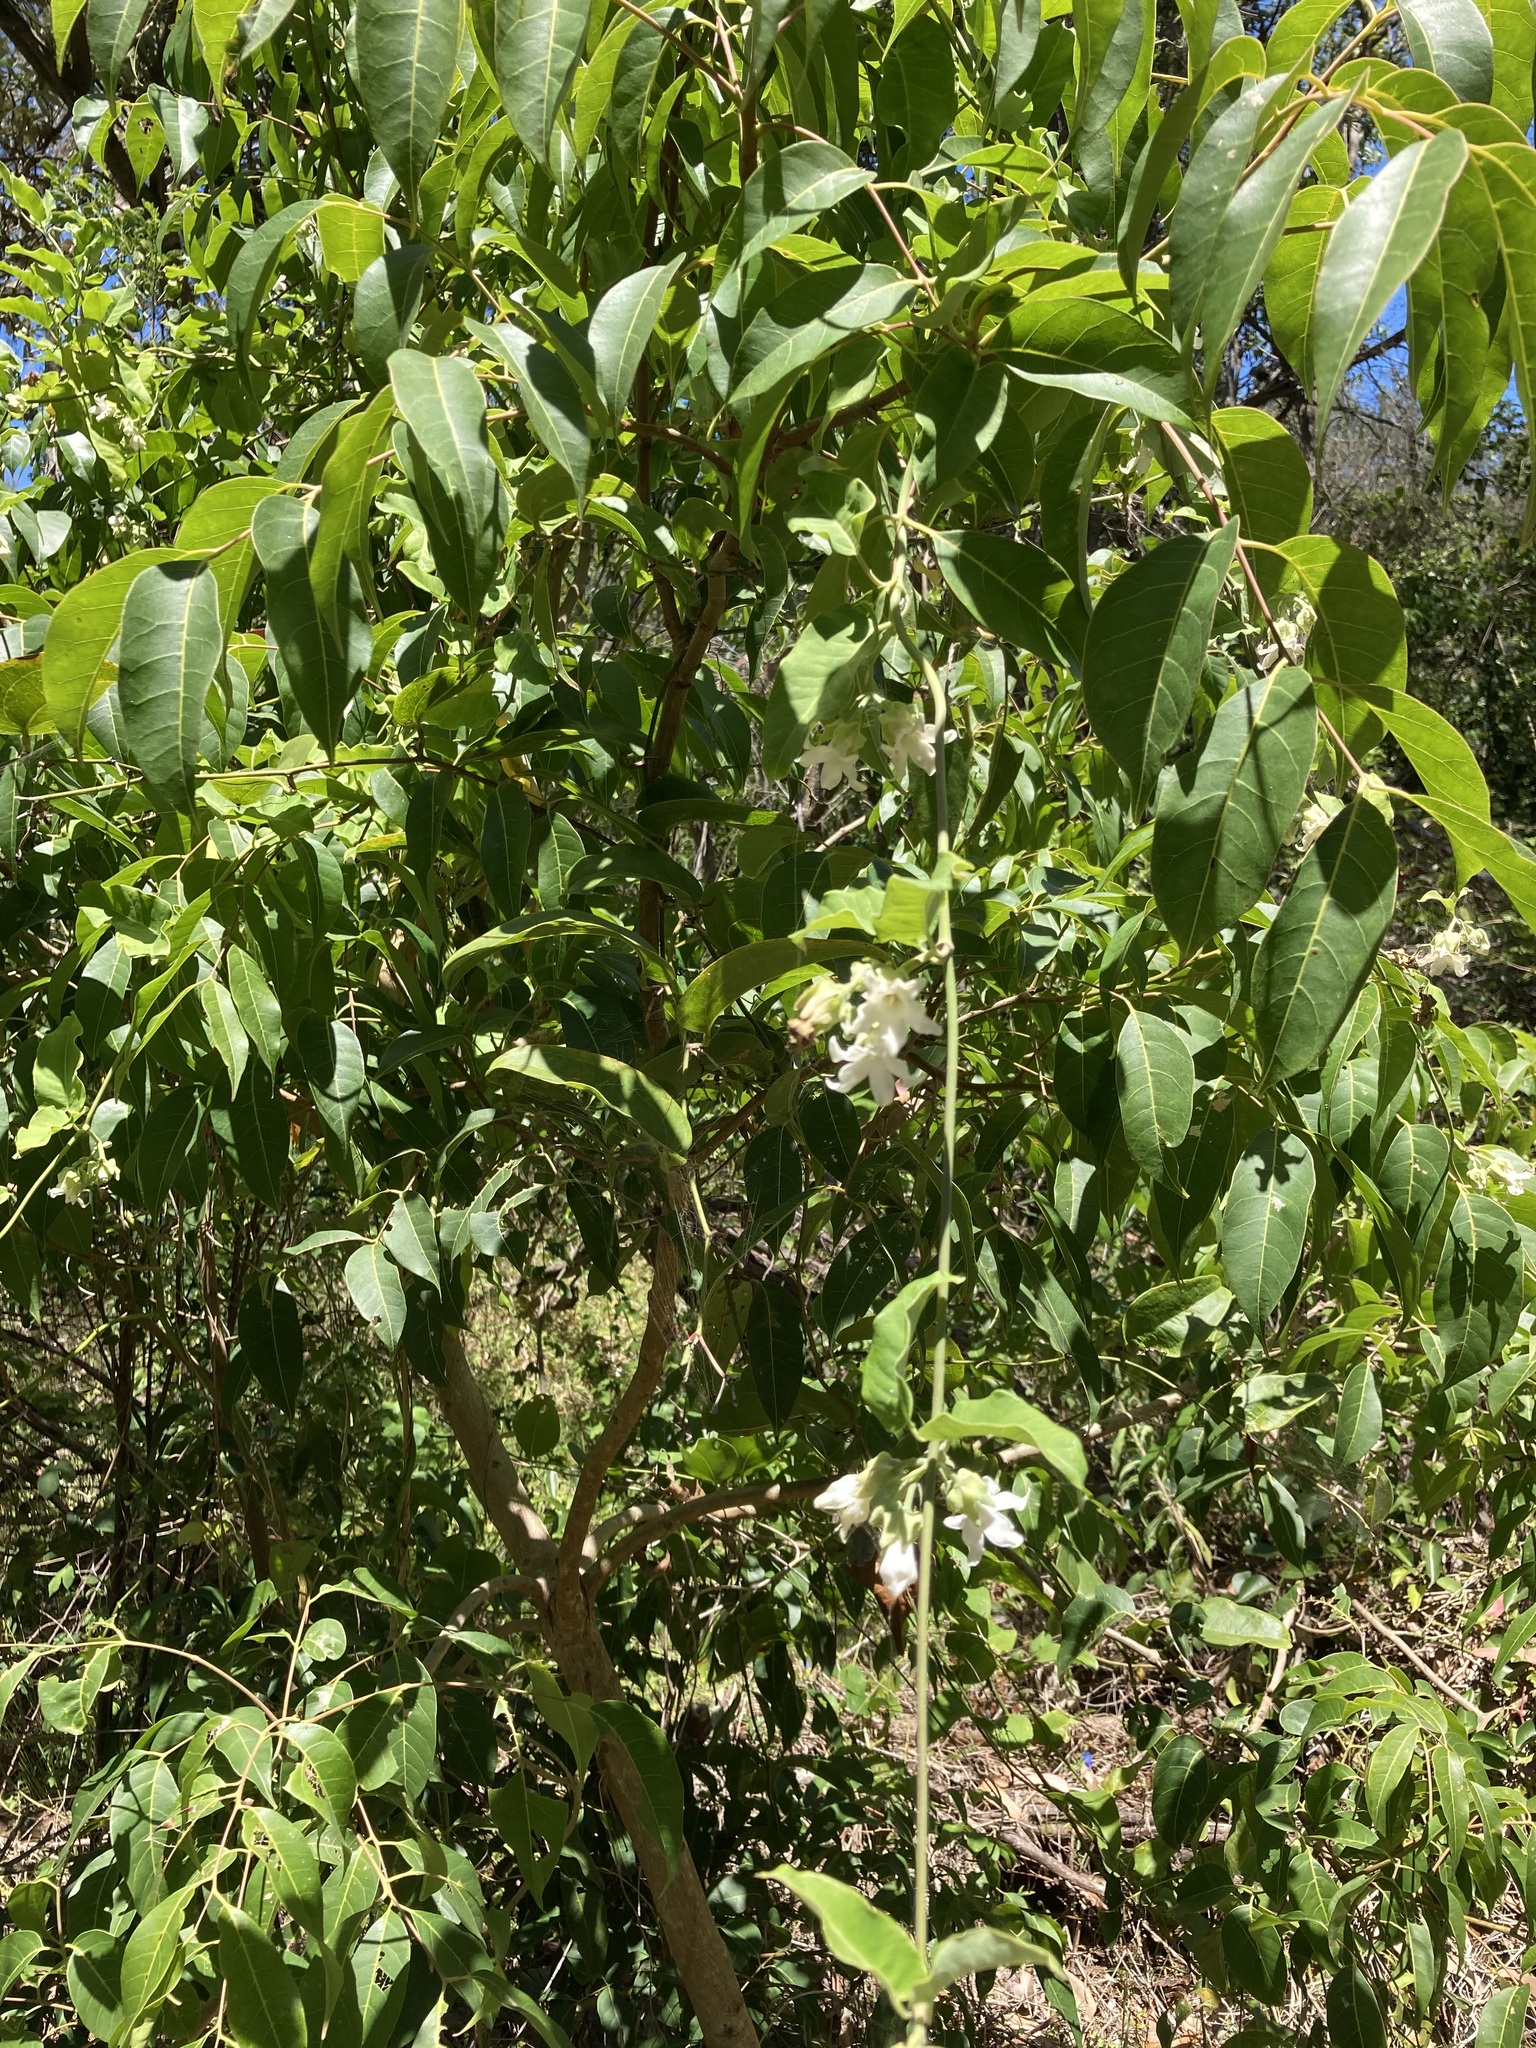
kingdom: Plantae
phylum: Tracheophyta
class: Magnoliopsida
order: Gentianales
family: Apocynaceae
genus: Araujia
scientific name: Araujia sericifera
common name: White bladderflower
